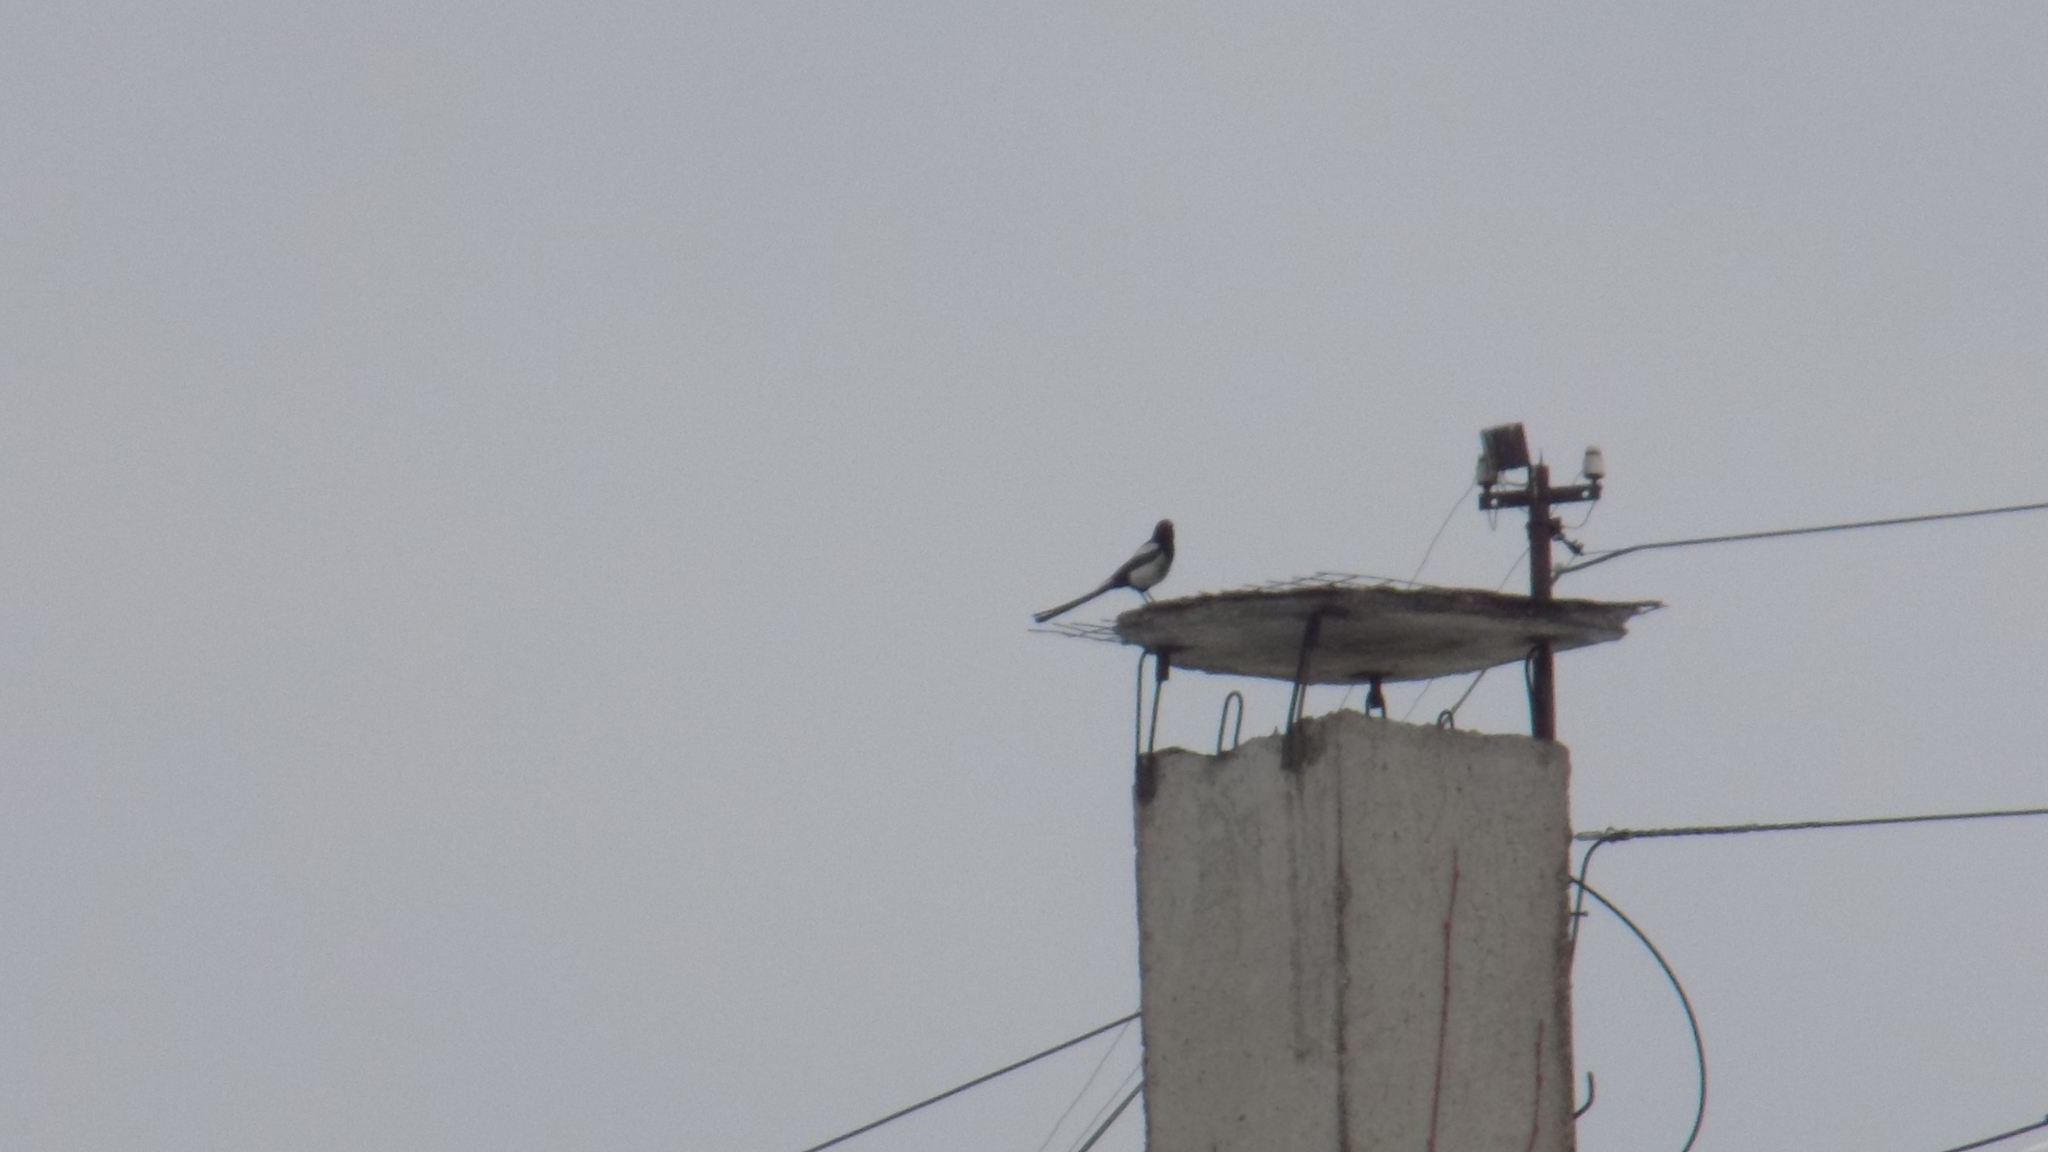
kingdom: Animalia
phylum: Chordata
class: Aves
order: Passeriformes
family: Corvidae
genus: Pica
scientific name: Pica pica
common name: Eurasian magpie
